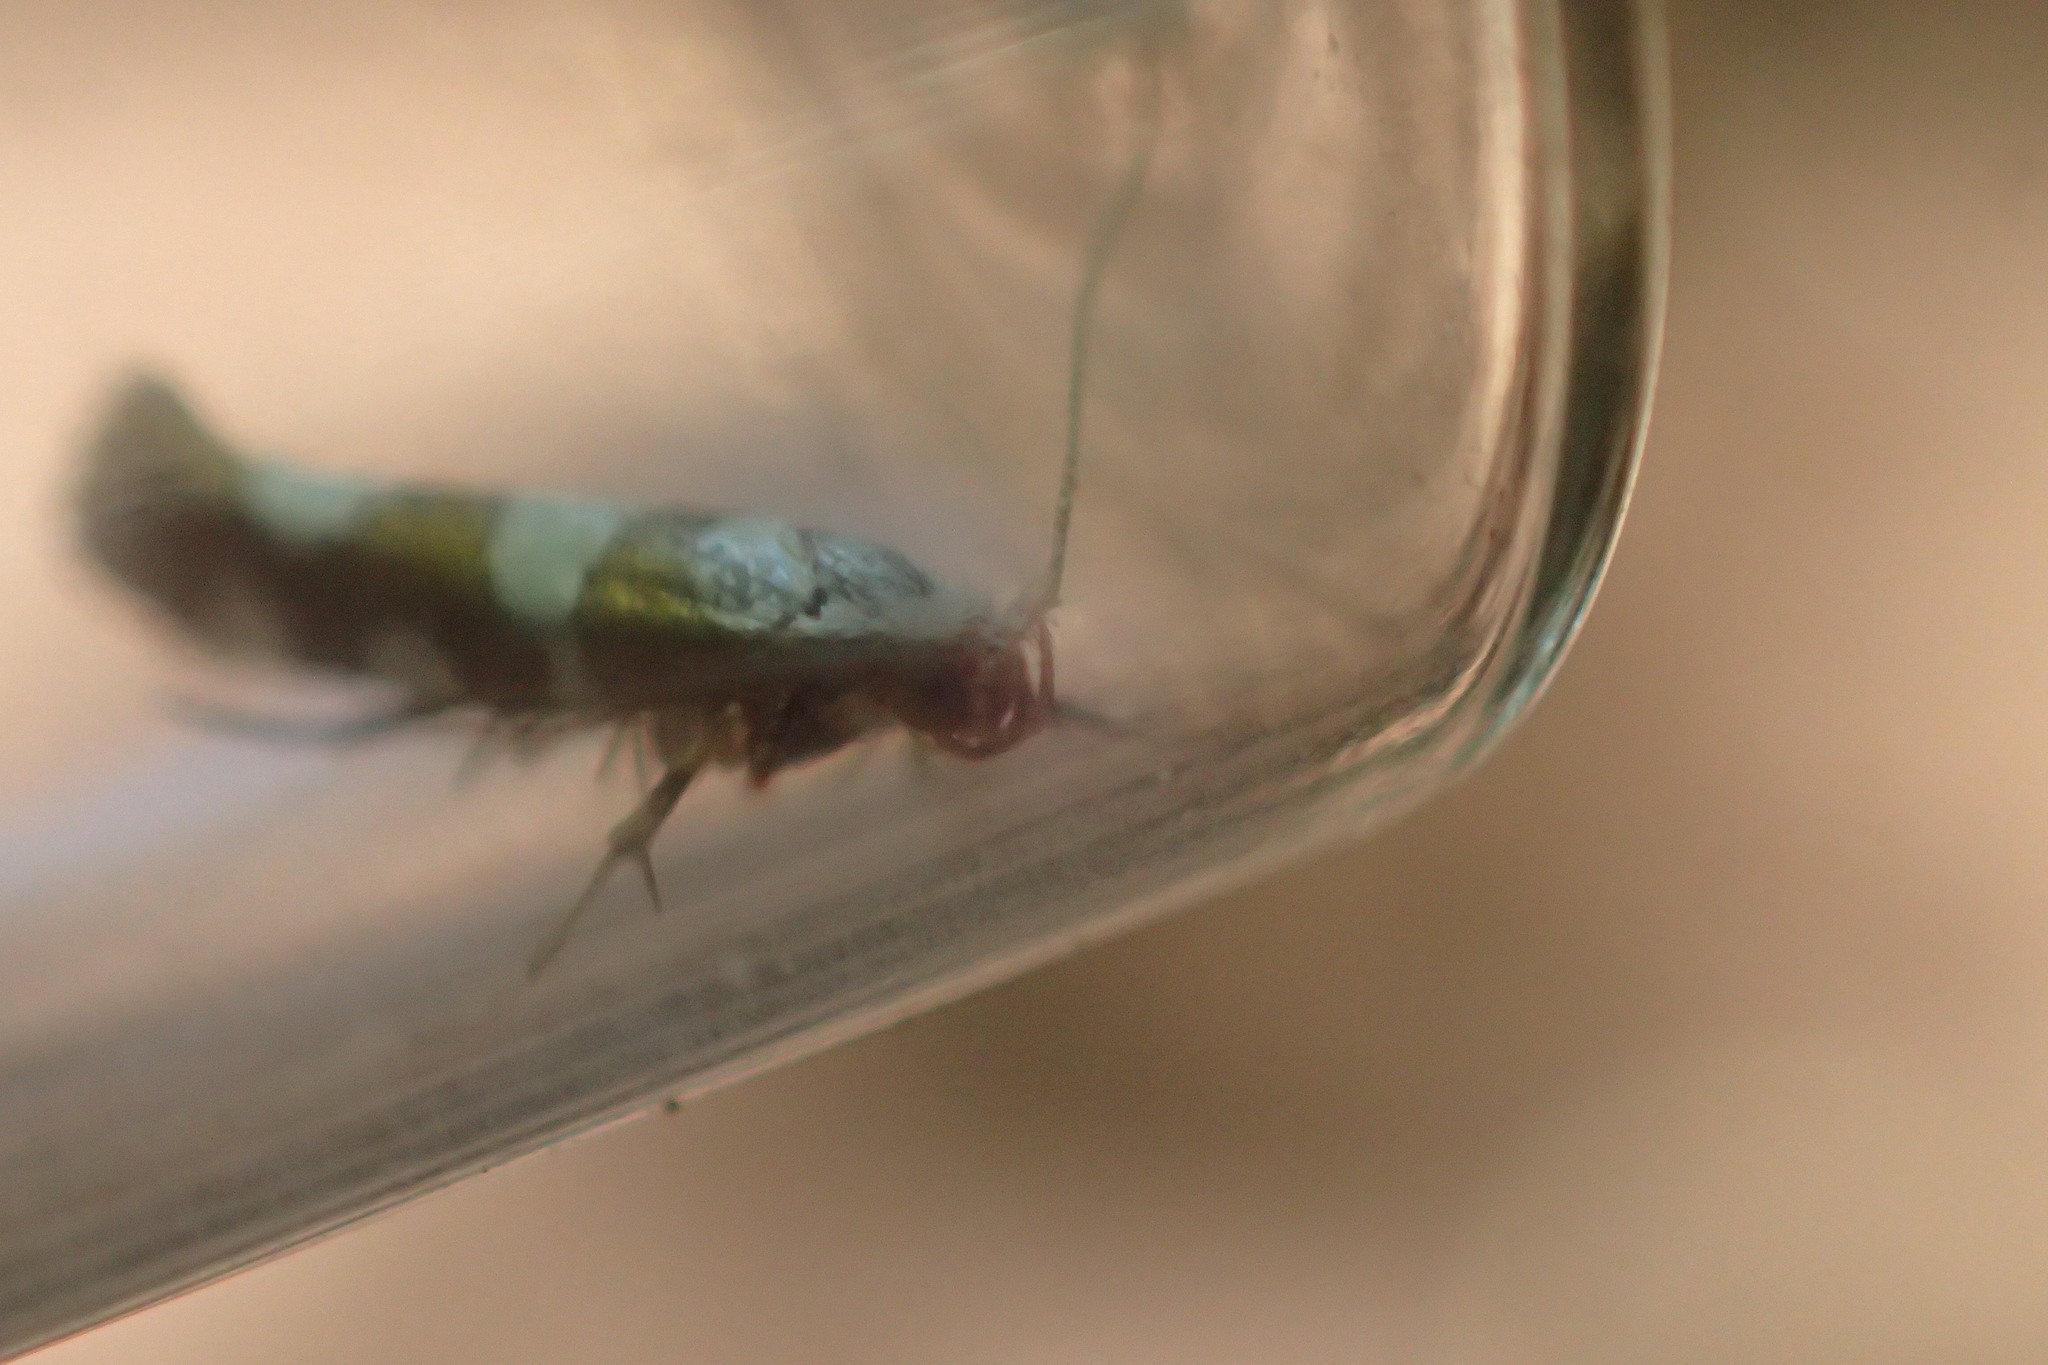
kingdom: Animalia
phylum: Arthropoda
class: Insecta
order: Lepidoptera
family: Argyresthiidae
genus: Argyresthia
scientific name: Argyresthia brockeella
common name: Gold-ribbon argent
